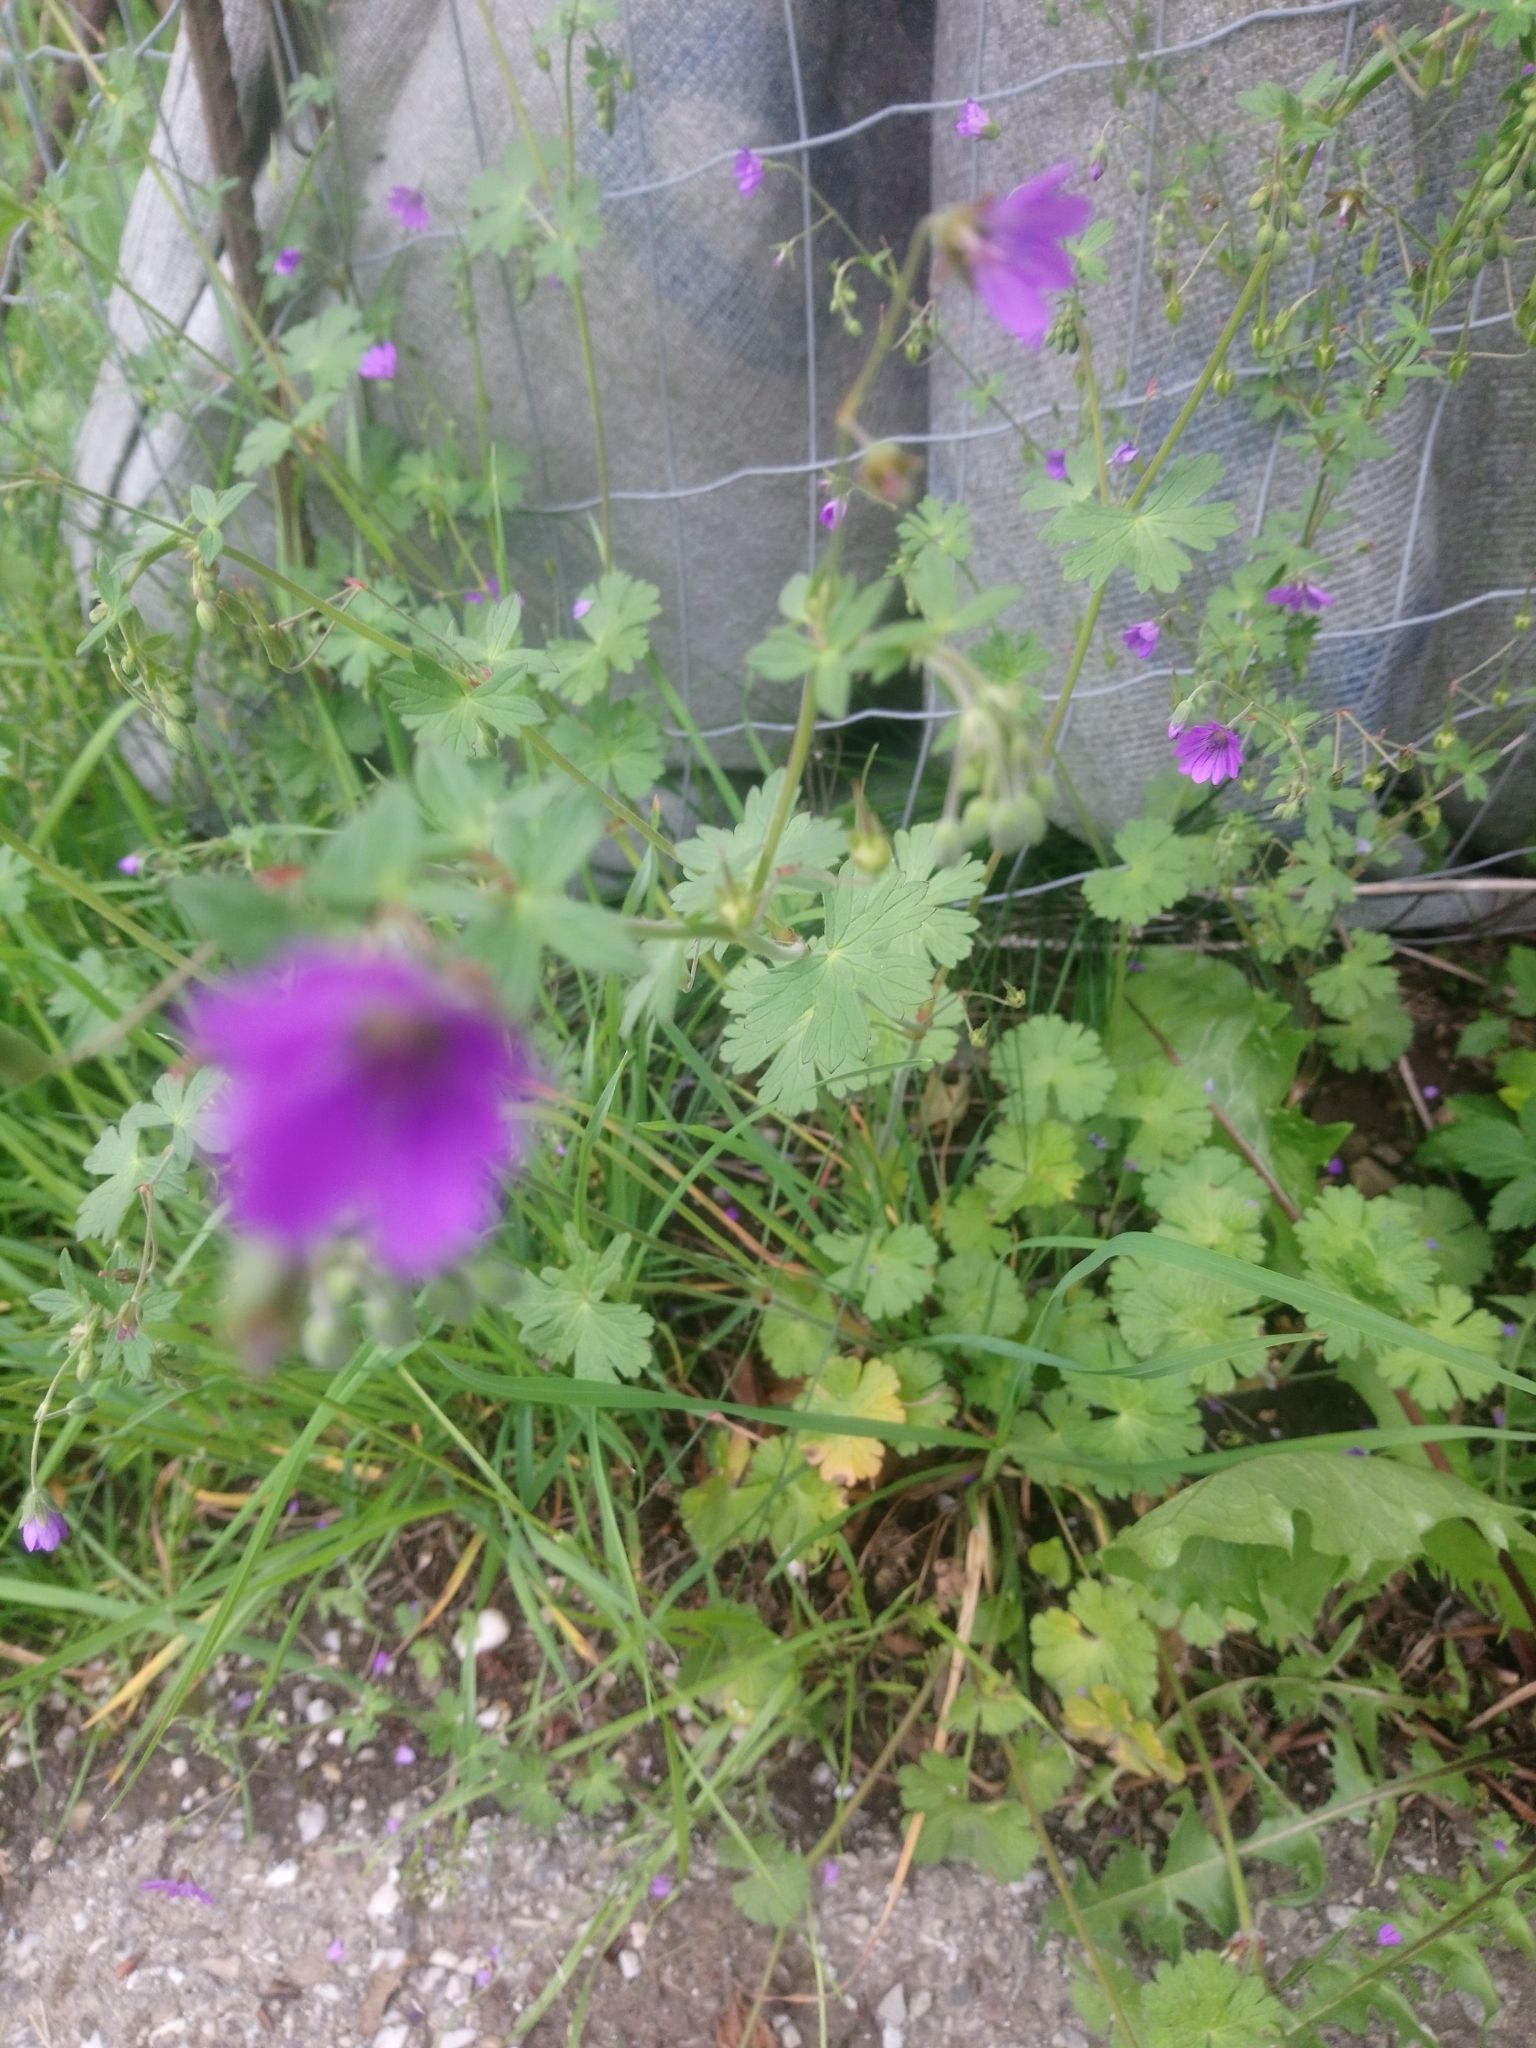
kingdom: Plantae
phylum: Tracheophyta
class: Magnoliopsida
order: Geraniales
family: Geraniaceae
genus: Geranium
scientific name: Geranium pyrenaicum
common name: Hedgerow crane's-bill
